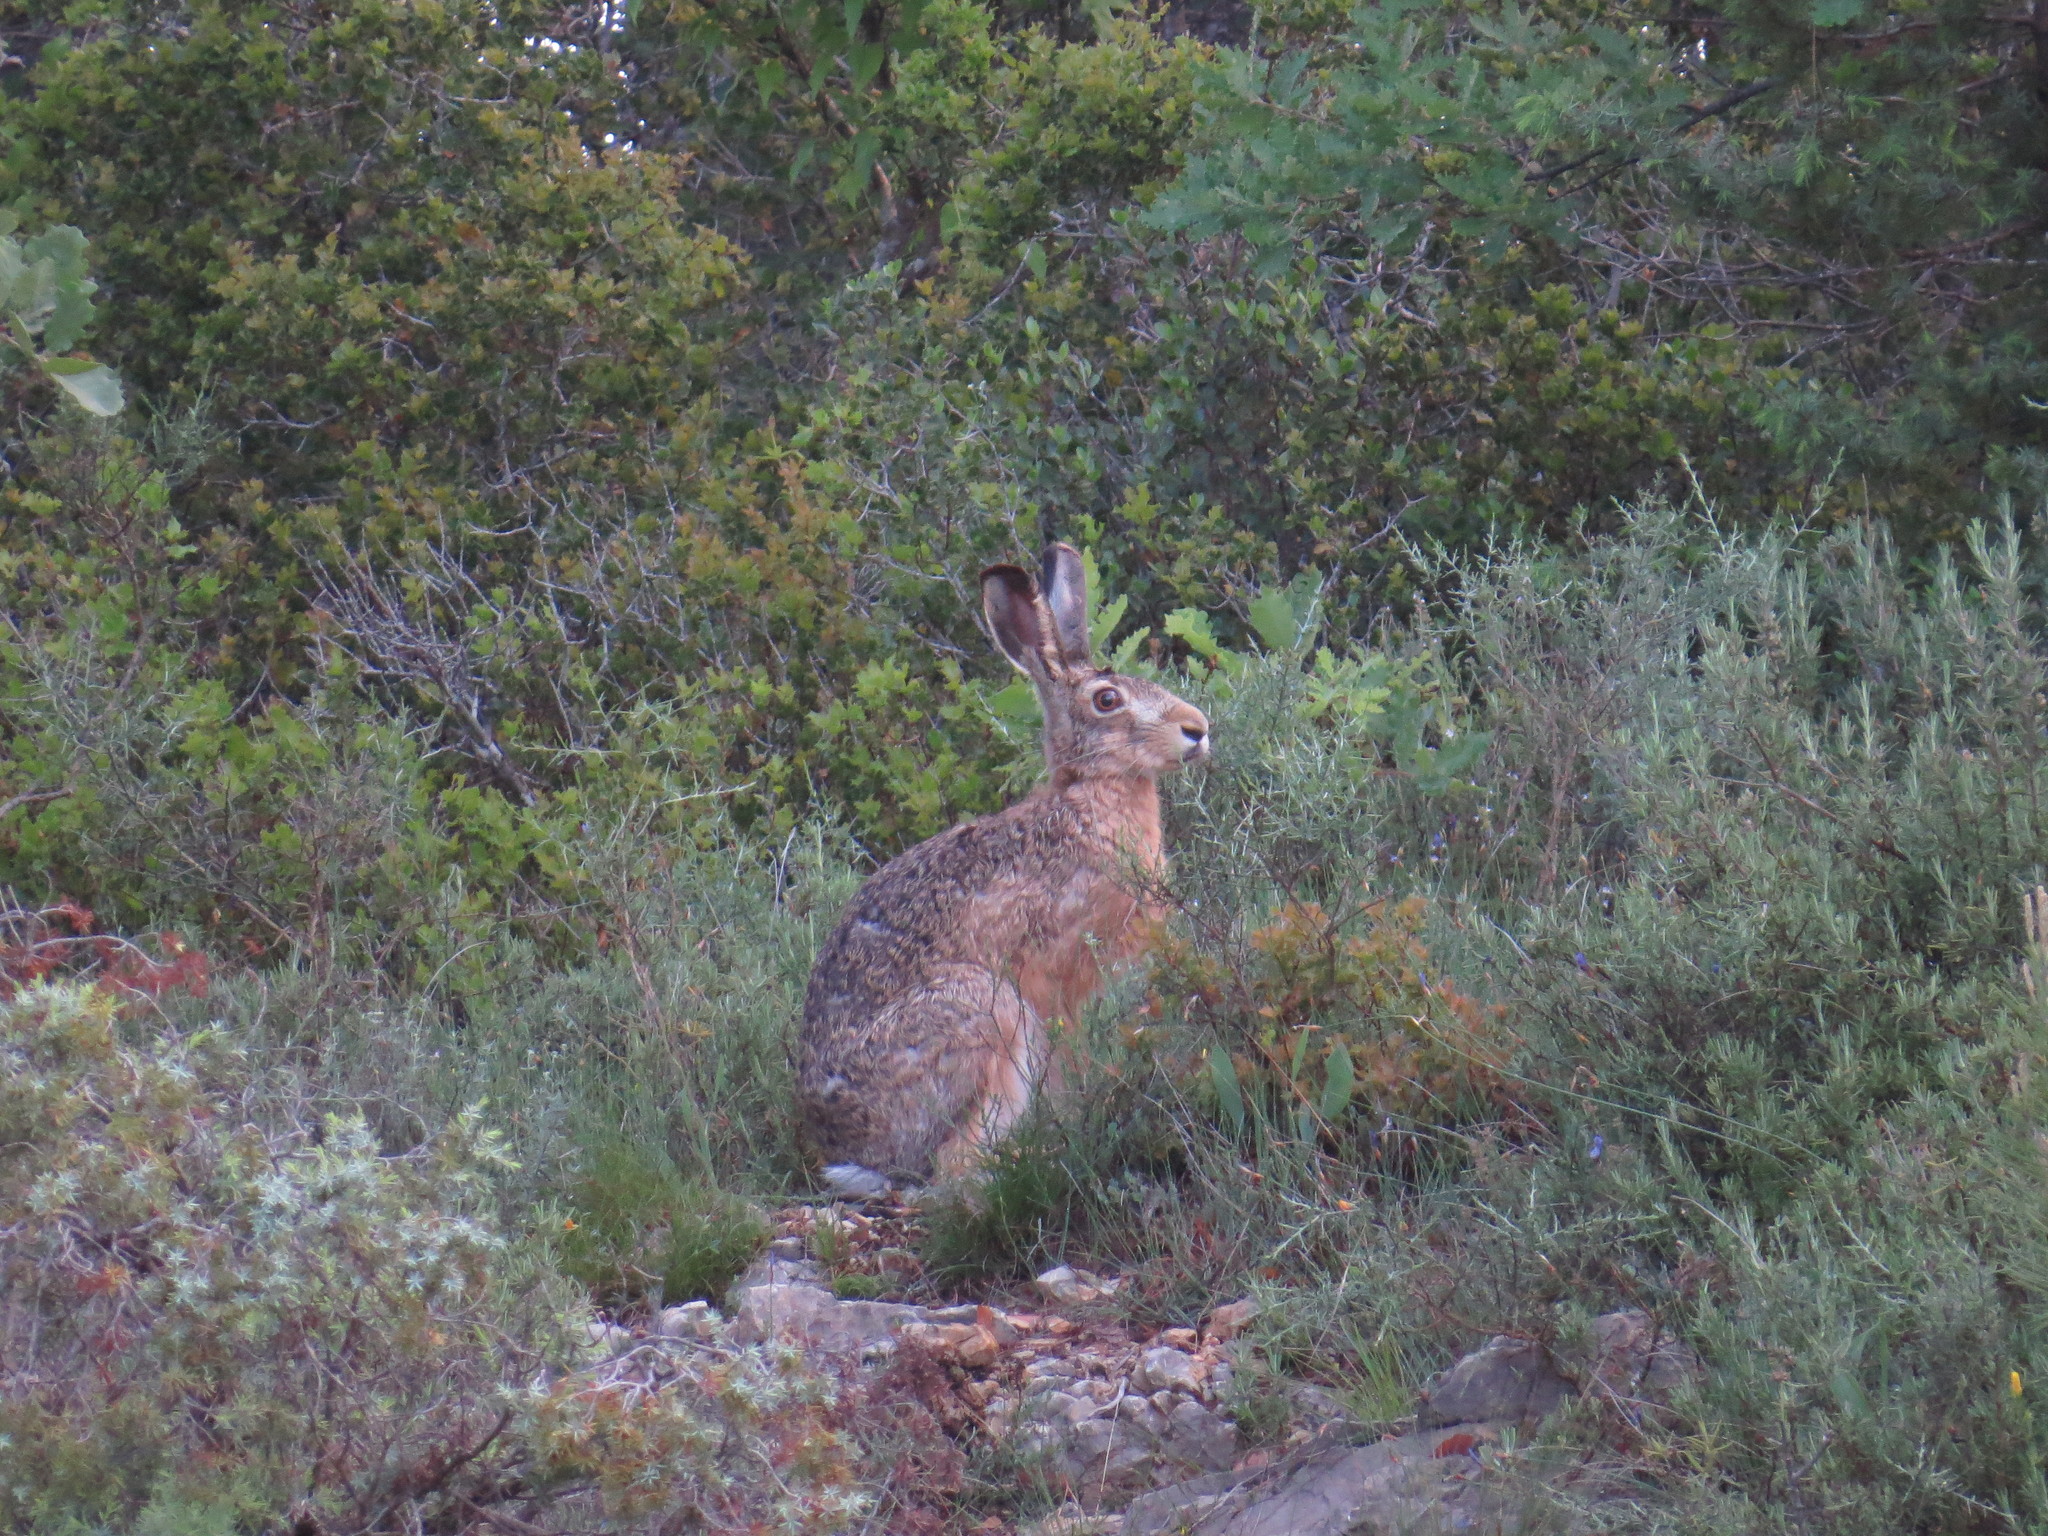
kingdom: Animalia
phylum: Chordata
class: Mammalia
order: Lagomorpha
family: Leporidae
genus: Lepus
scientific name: Lepus europaeus
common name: European hare
